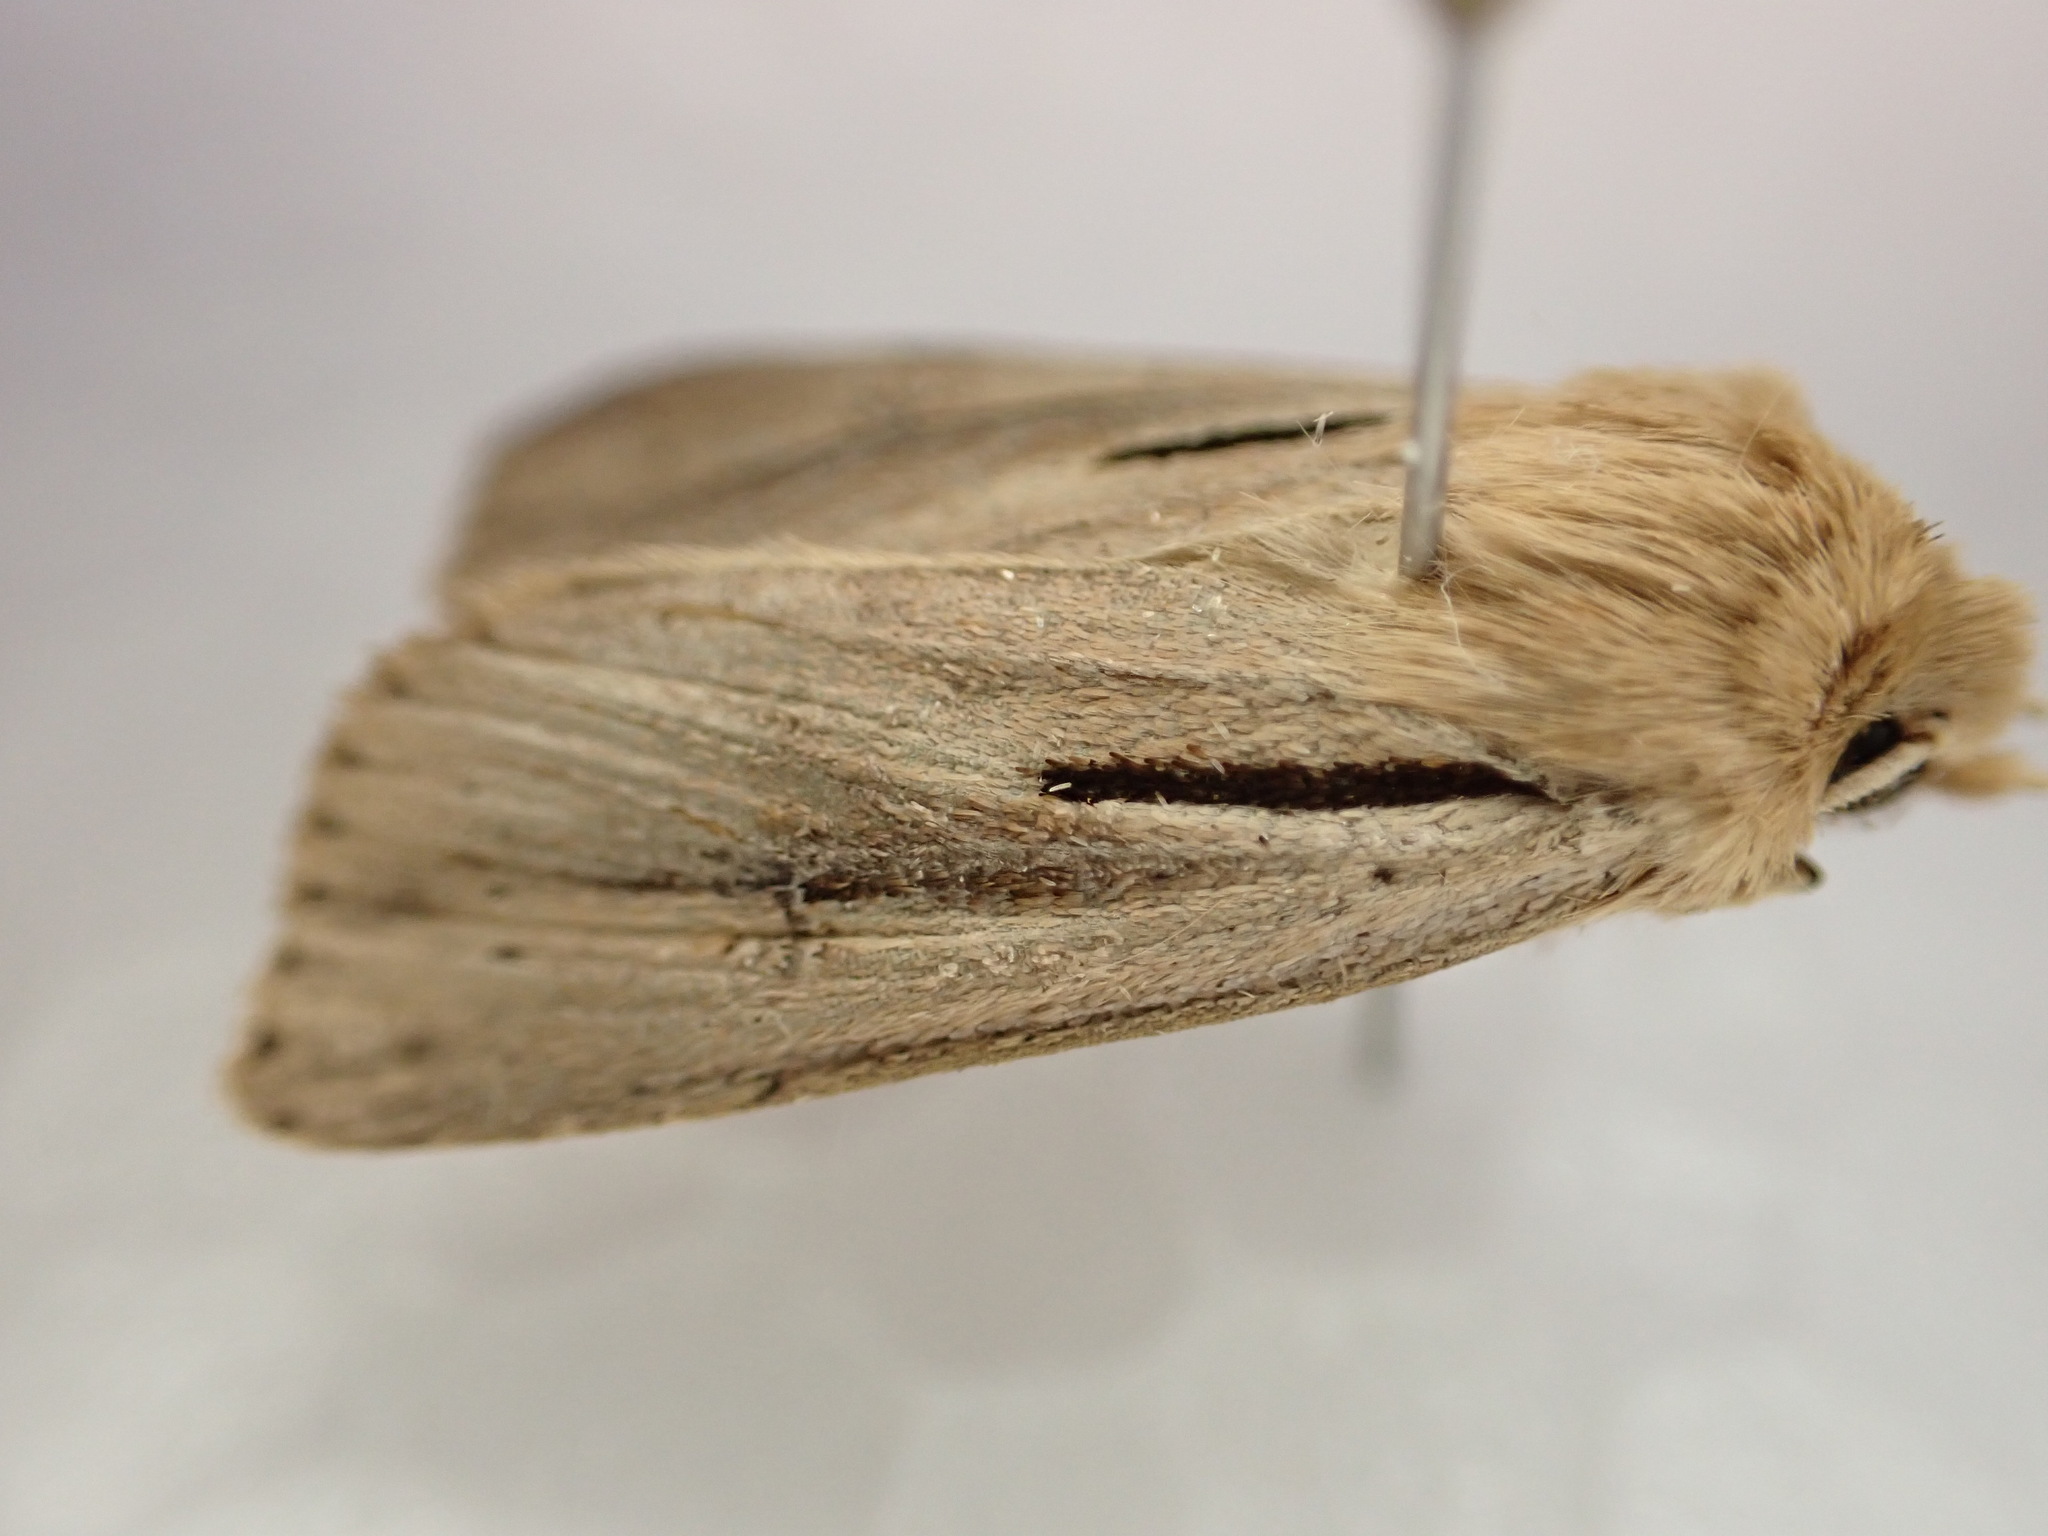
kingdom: Animalia
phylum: Arthropoda
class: Insecta
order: Lepidoptera
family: Noctuidae
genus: Ichneutica
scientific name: Ichneutica propria
